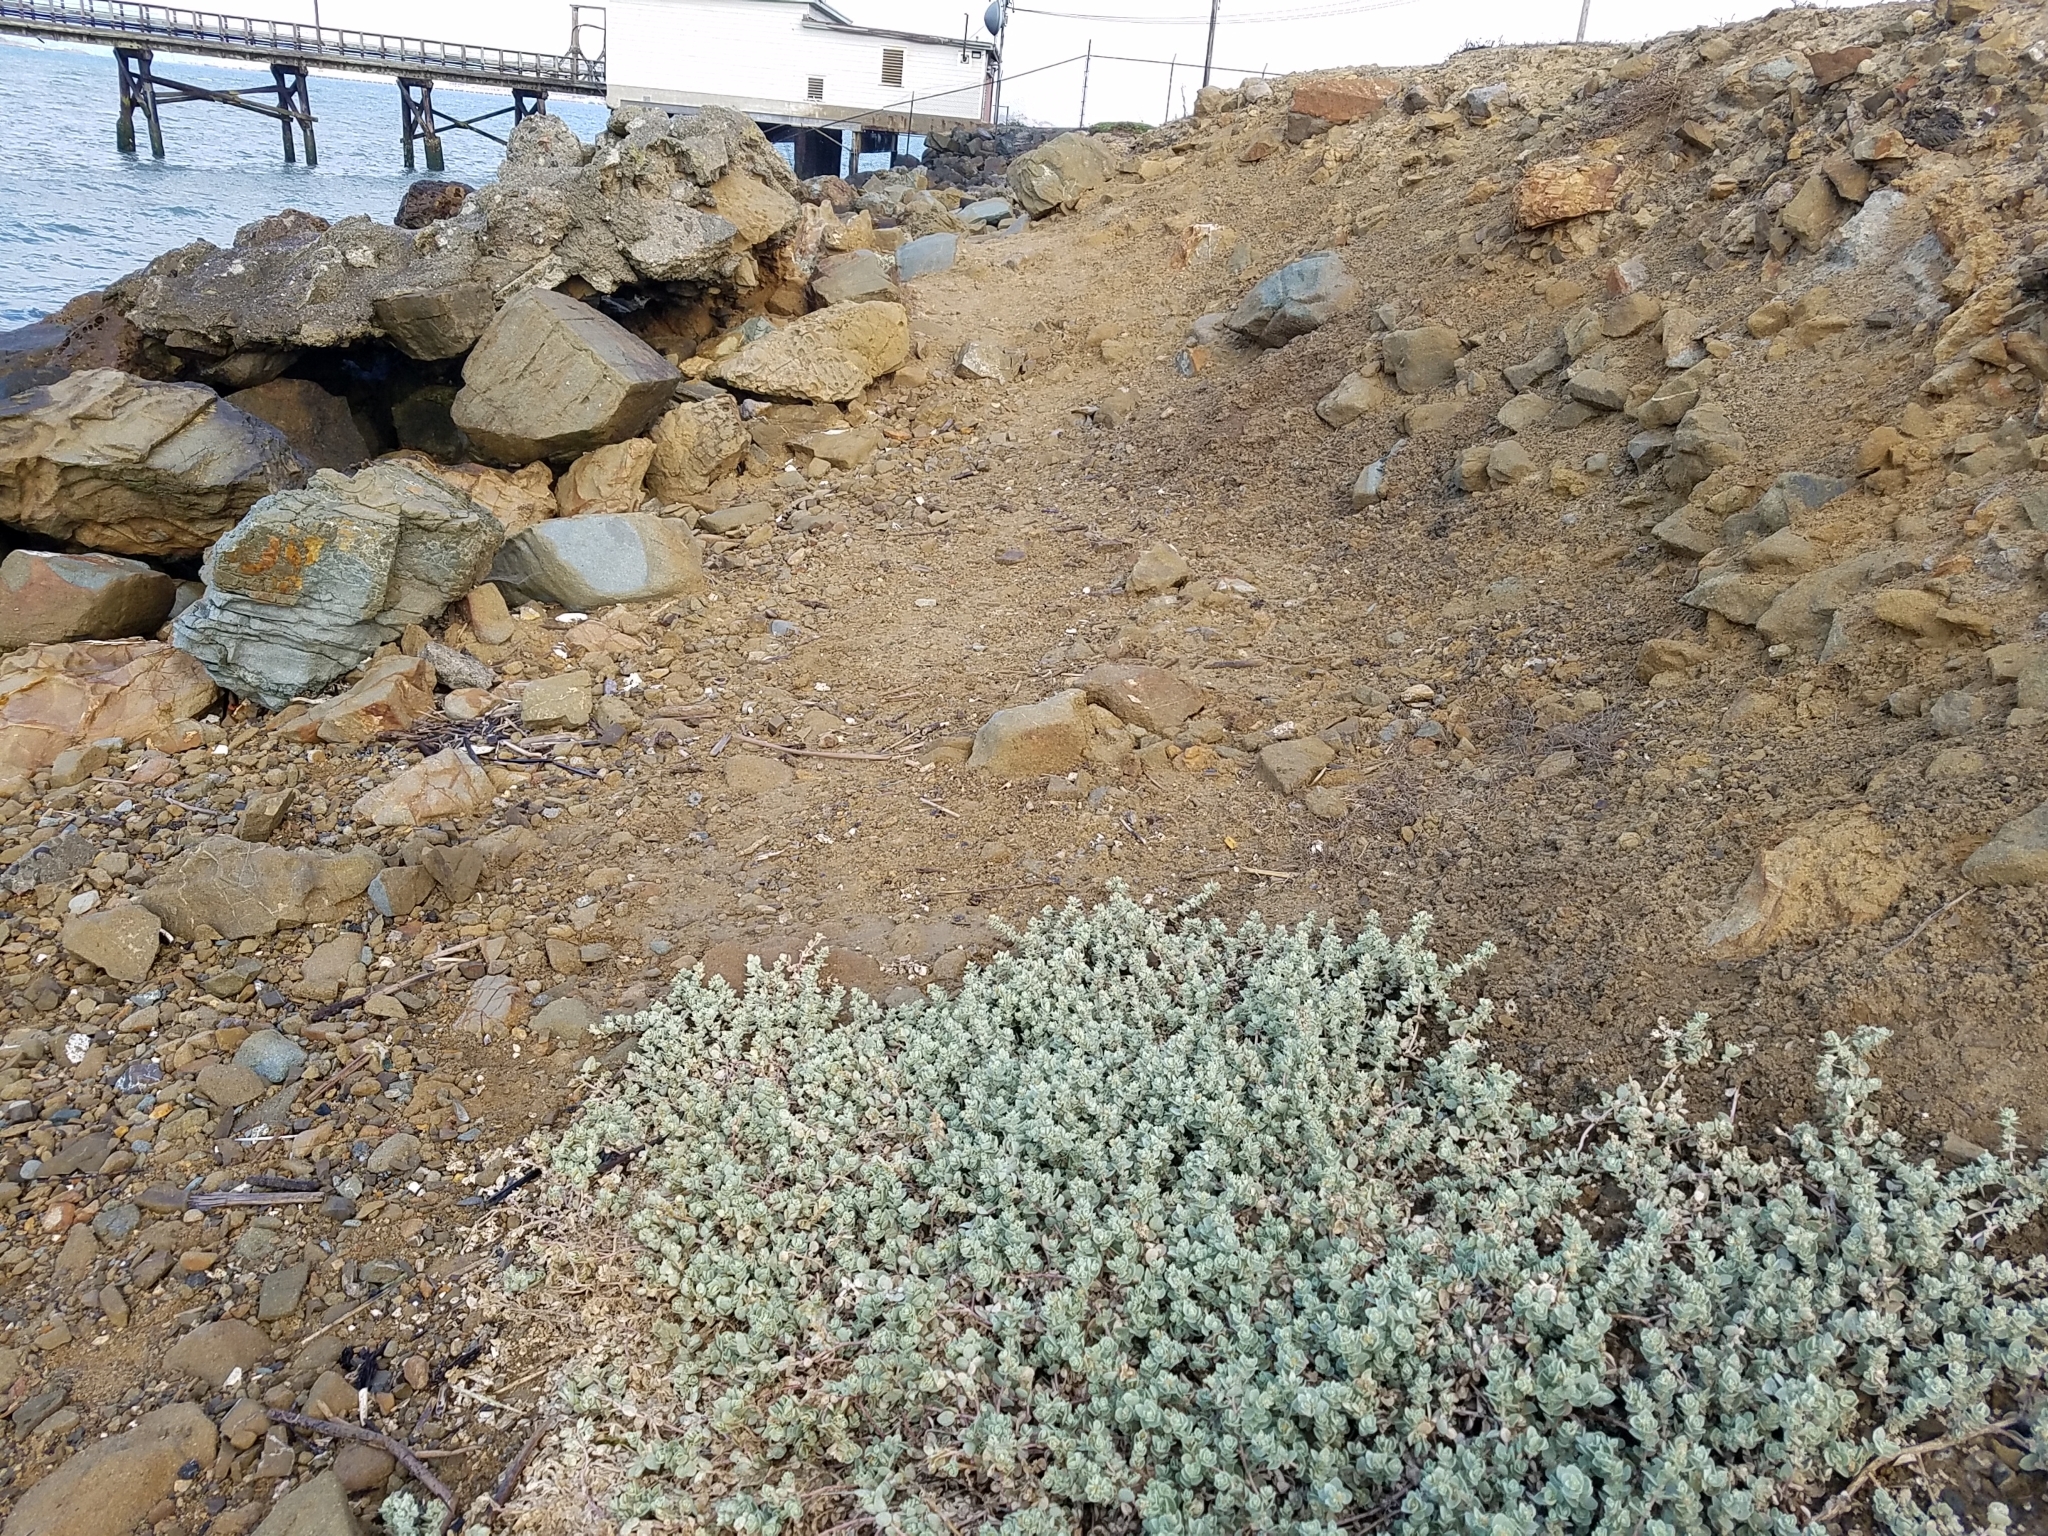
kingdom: Plantae
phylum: Tracheophyta
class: Magnoliopsida
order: Caryophyllales
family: Amaranthaceae
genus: Atriplex
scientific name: Atriplex leucophylla
